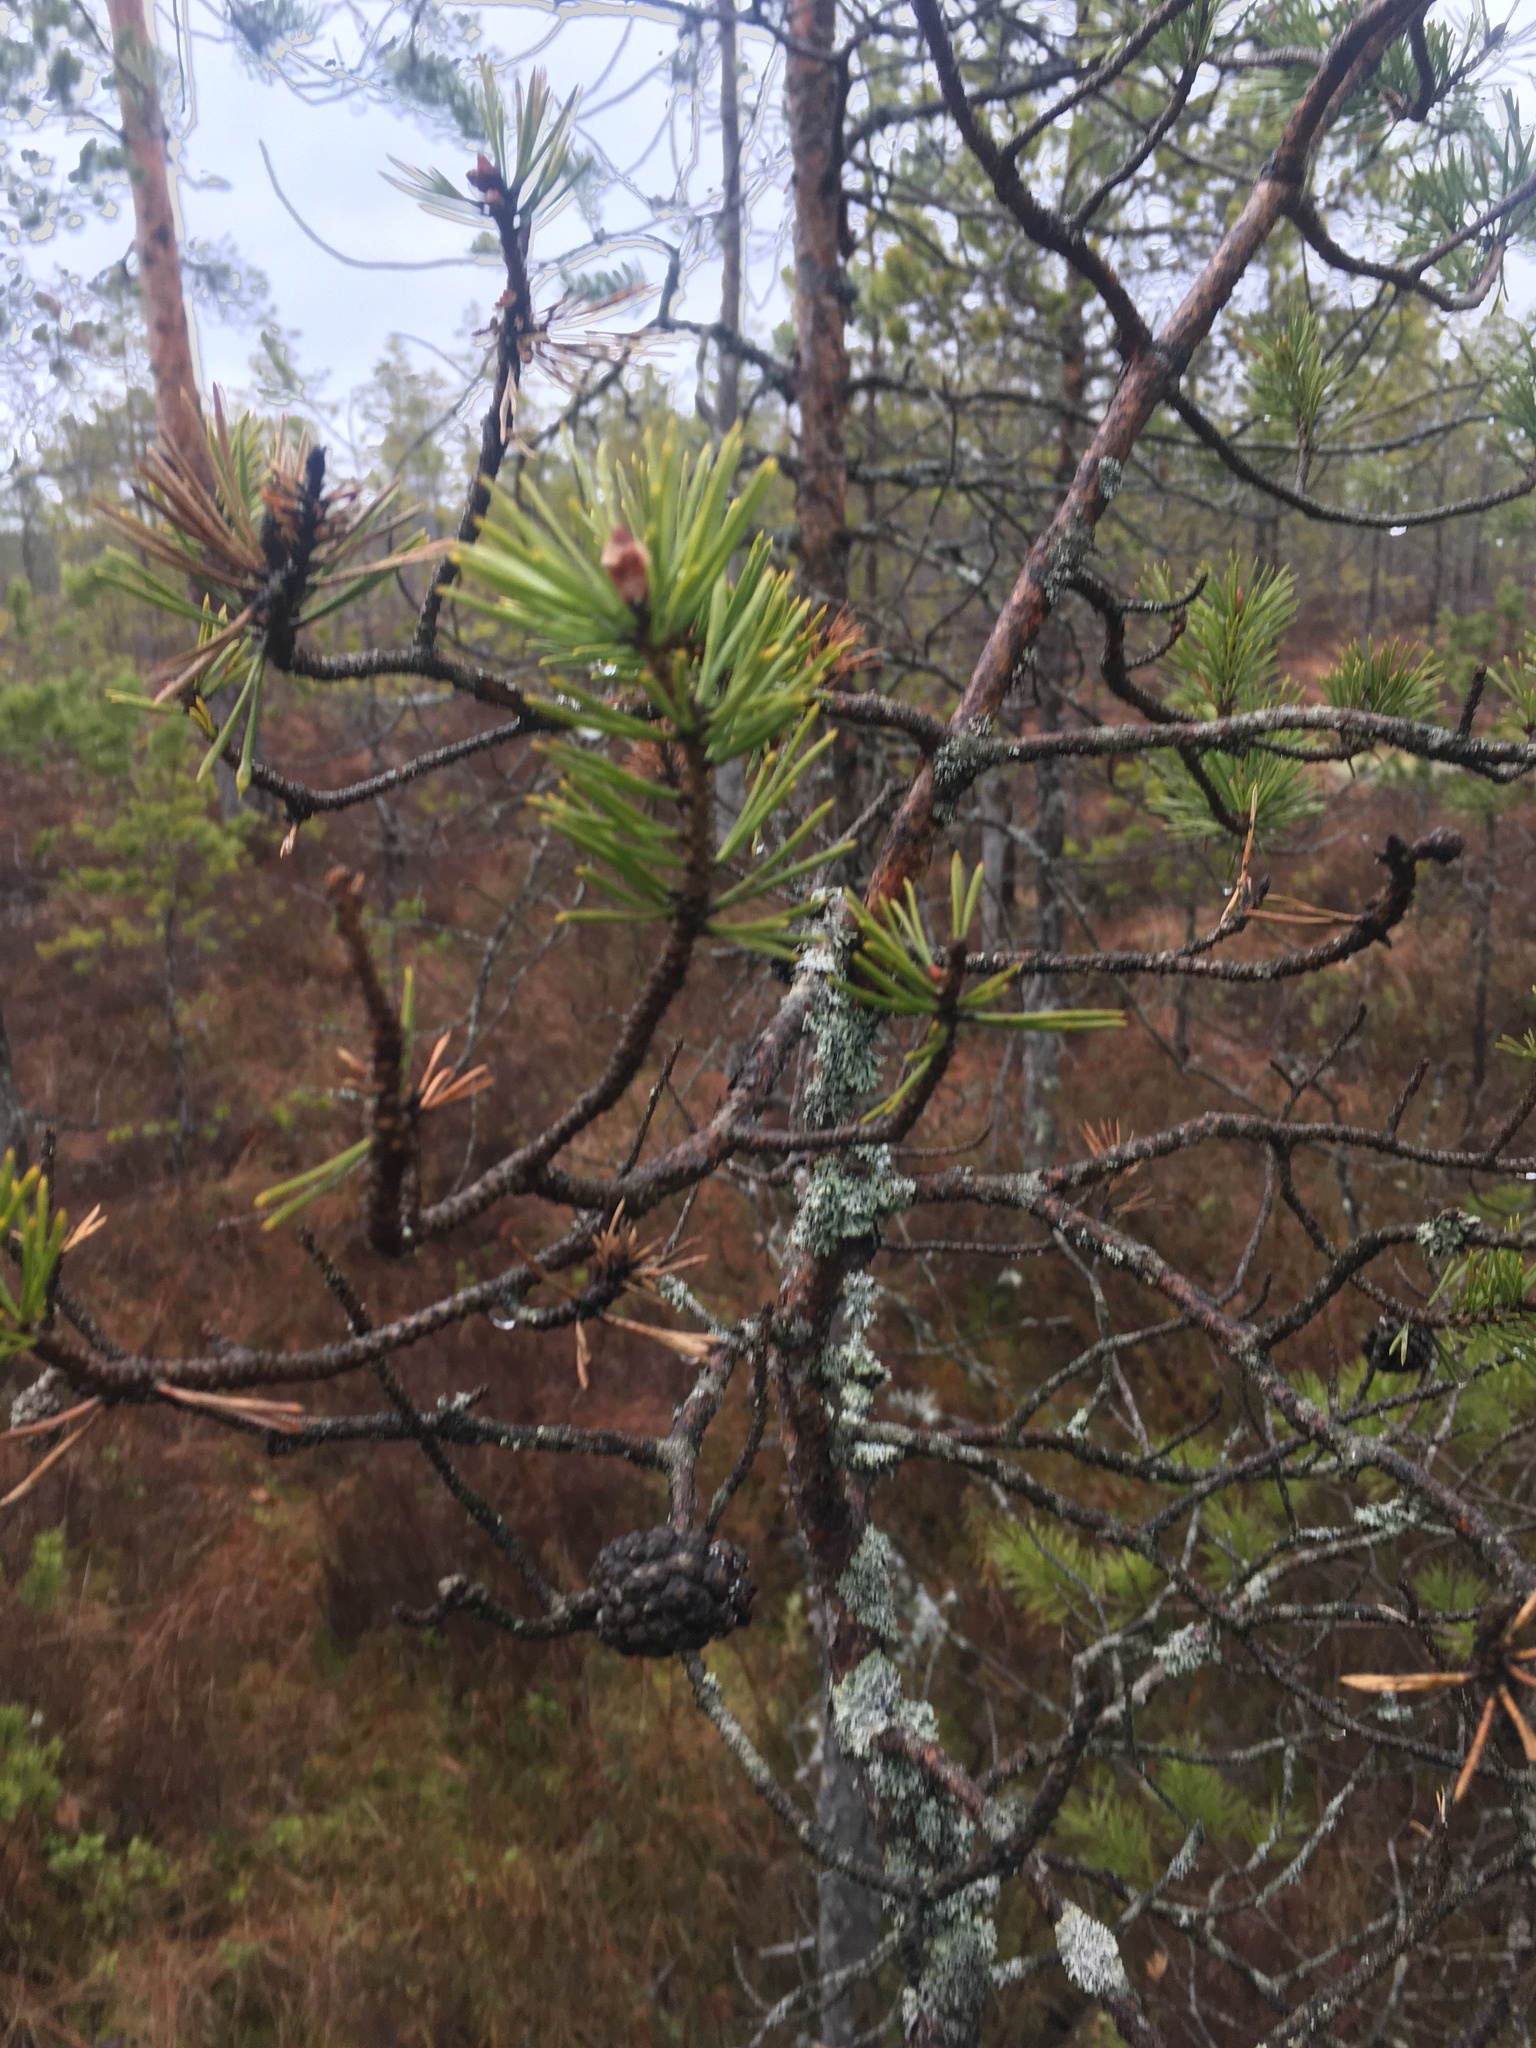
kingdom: Plantae
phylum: Tracheophyta
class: Pinopsida
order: Pinales
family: Pinaceae
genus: Pinus
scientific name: Pinus sylvestris
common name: Scots pine
